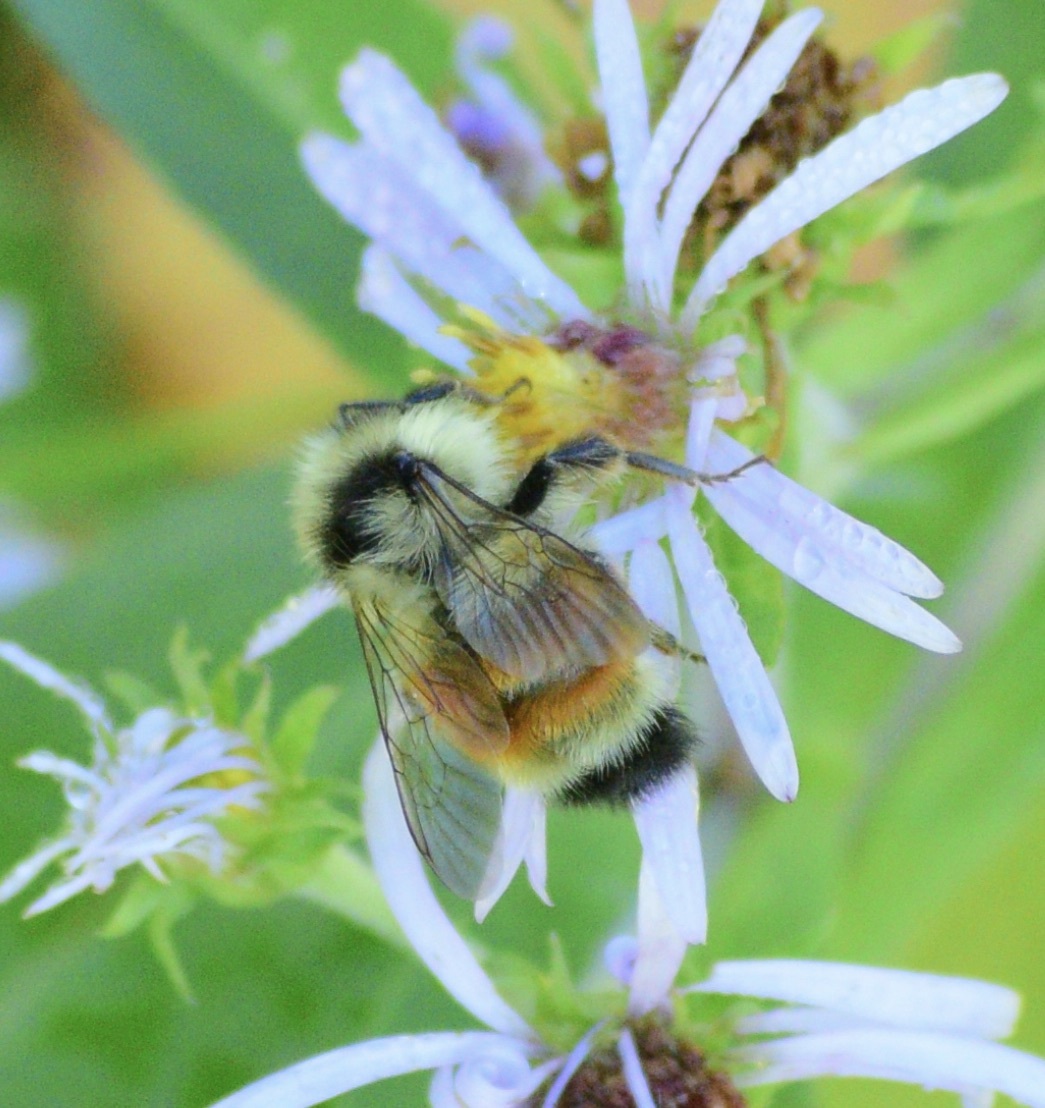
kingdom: Animalia
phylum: Arthropoda
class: Insecta
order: Hymenoptera
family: Apidae
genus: Bombus
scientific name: Bombus ternarius
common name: Tri-colored bumble bee
